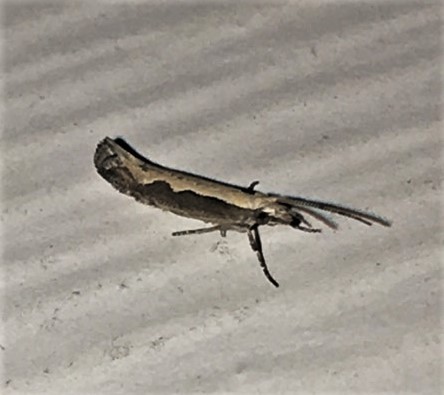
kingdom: Animalia
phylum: Arthropoda
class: Insecta
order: Lepidoptera
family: Plutellidae
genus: Plutella
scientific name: Plutella xylostella
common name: Diamond-back moth
